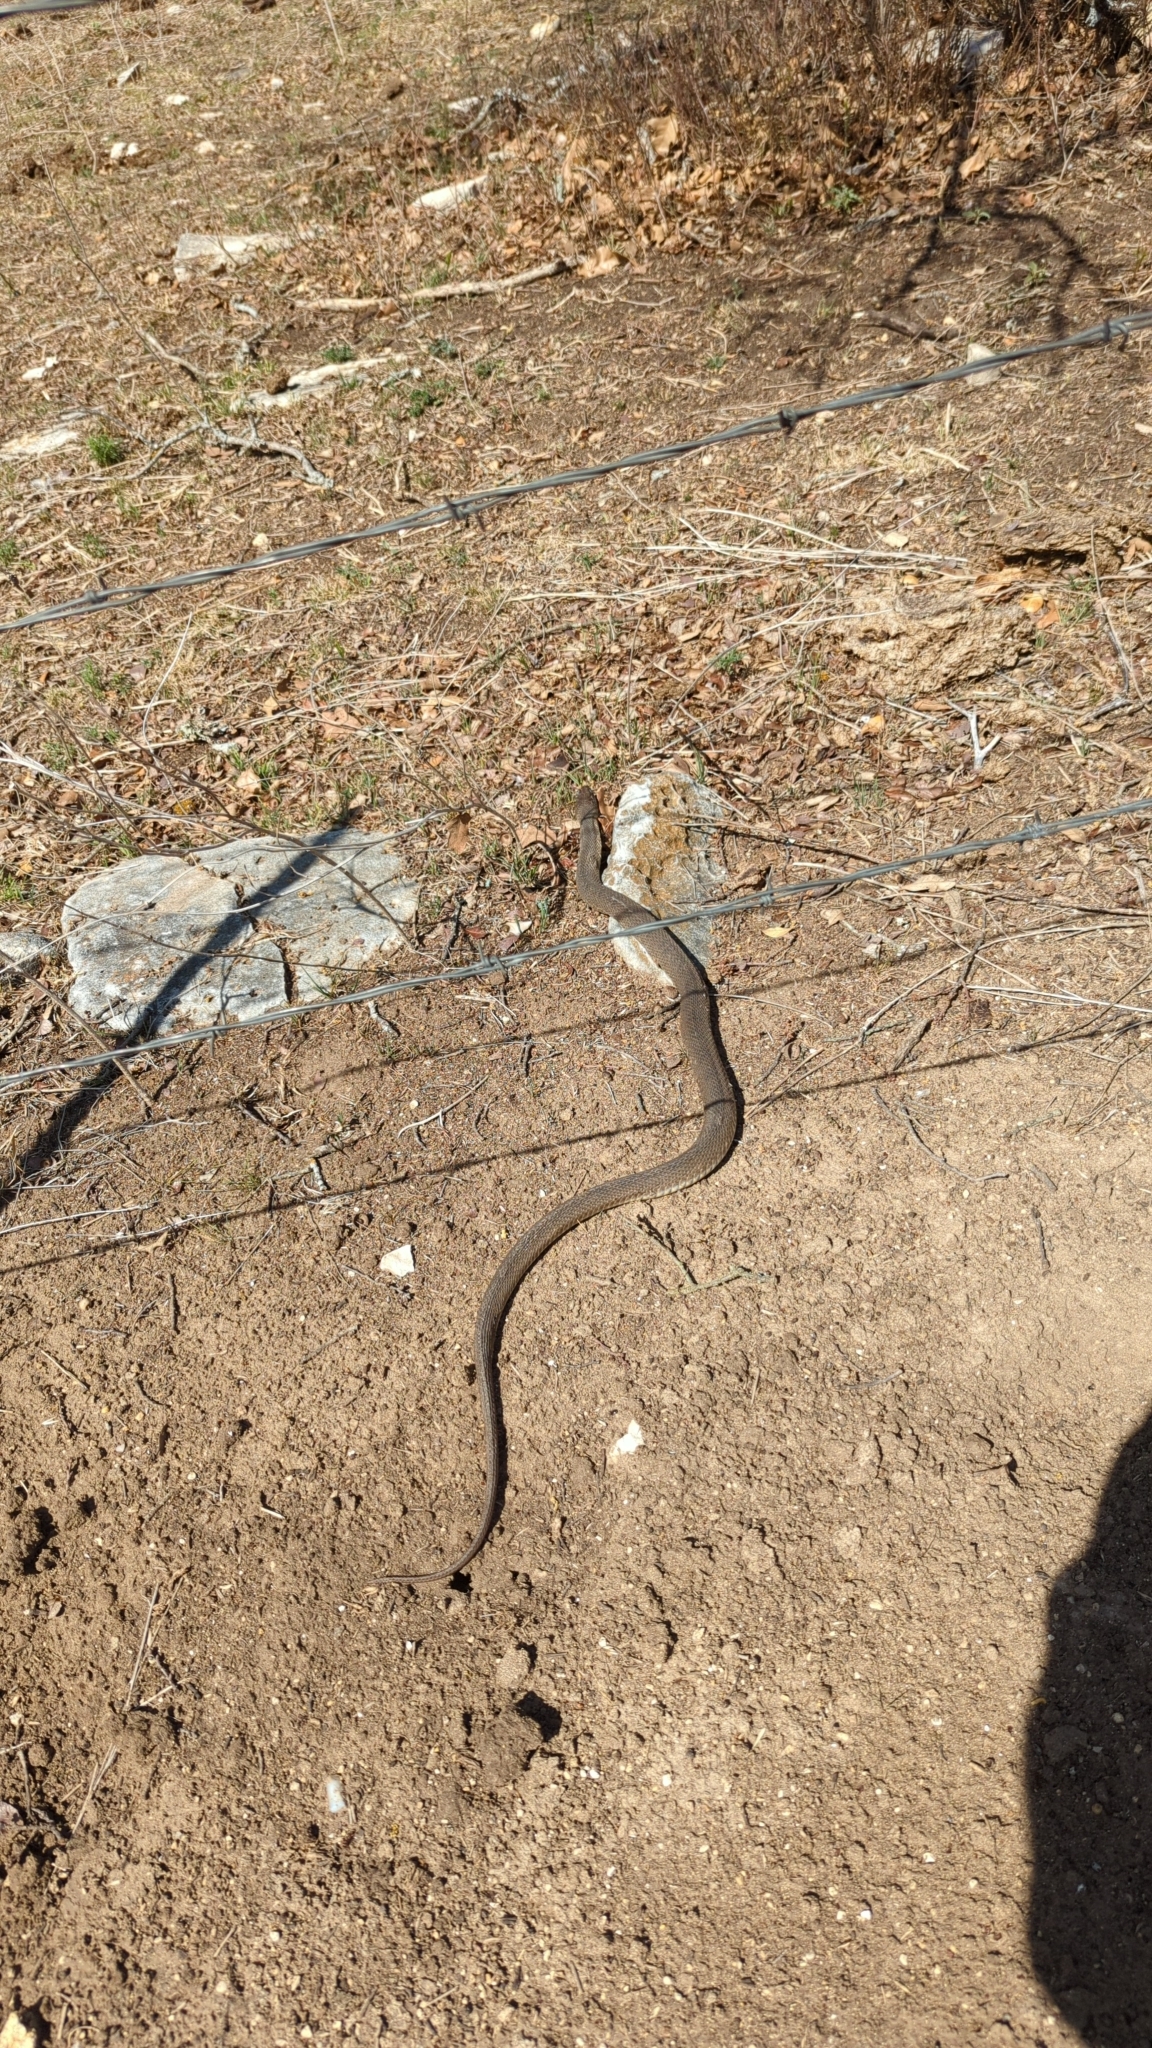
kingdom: Animalia
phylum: Chordata
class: Squamata
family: Colubridae
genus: Nerodia
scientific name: Nerodia erythrogaster
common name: Plainbelly water snake
